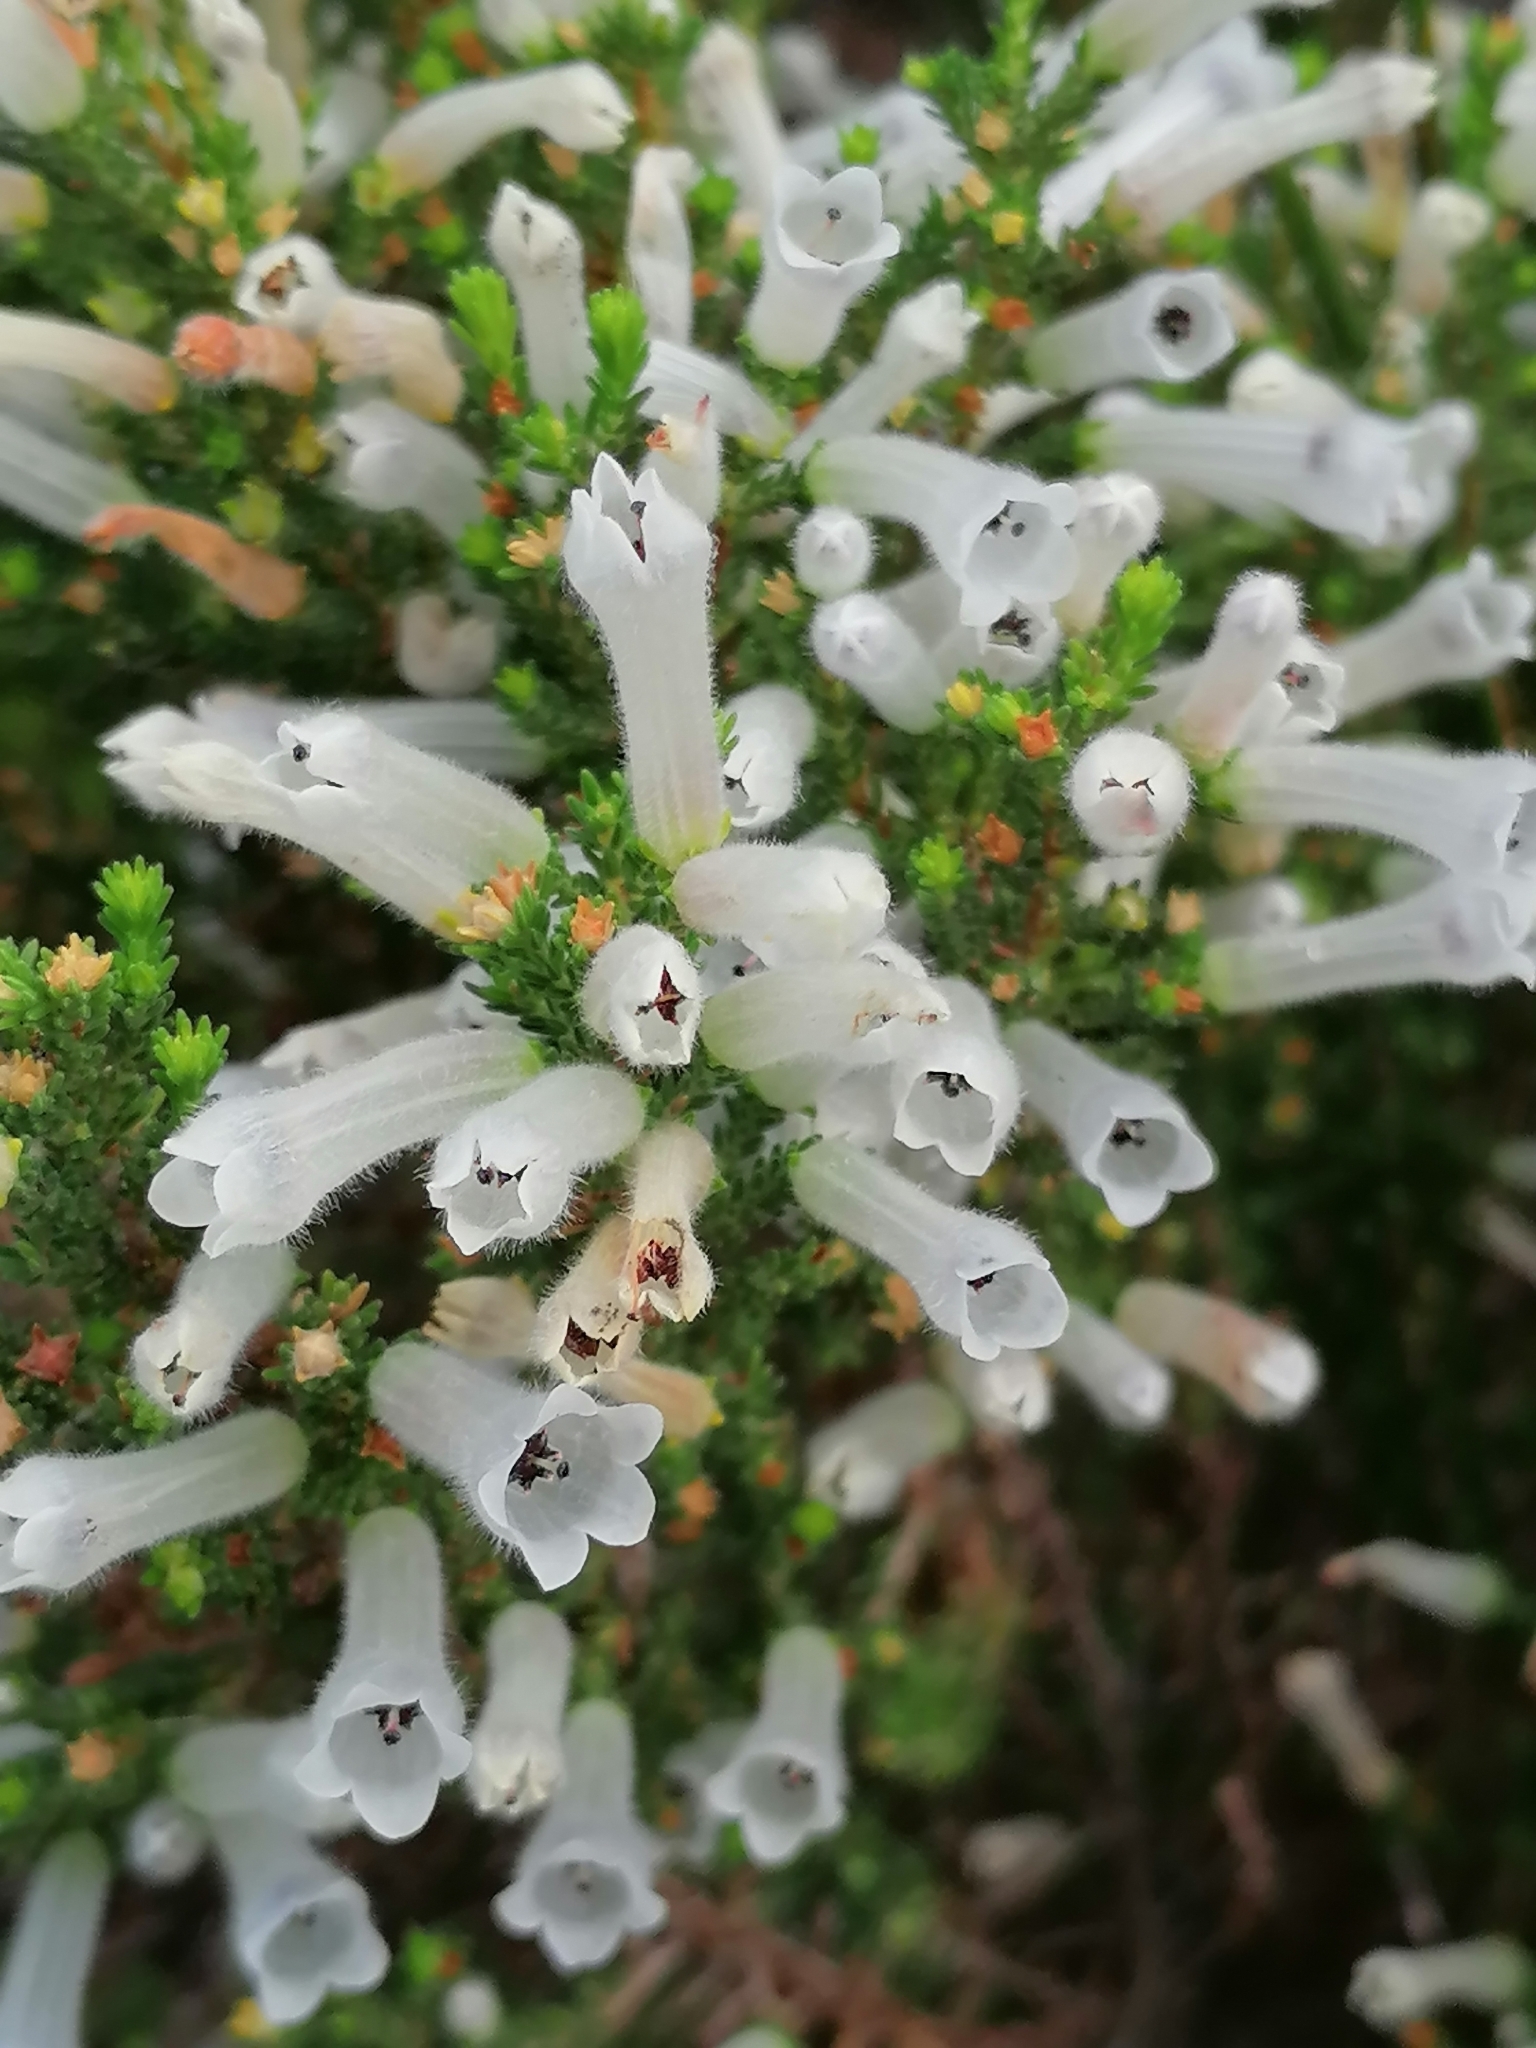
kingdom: Plantae
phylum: Tracheophyta
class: Magnoliopsida
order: Ericales
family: Ericaceae
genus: Erica
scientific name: Erica perspicua
